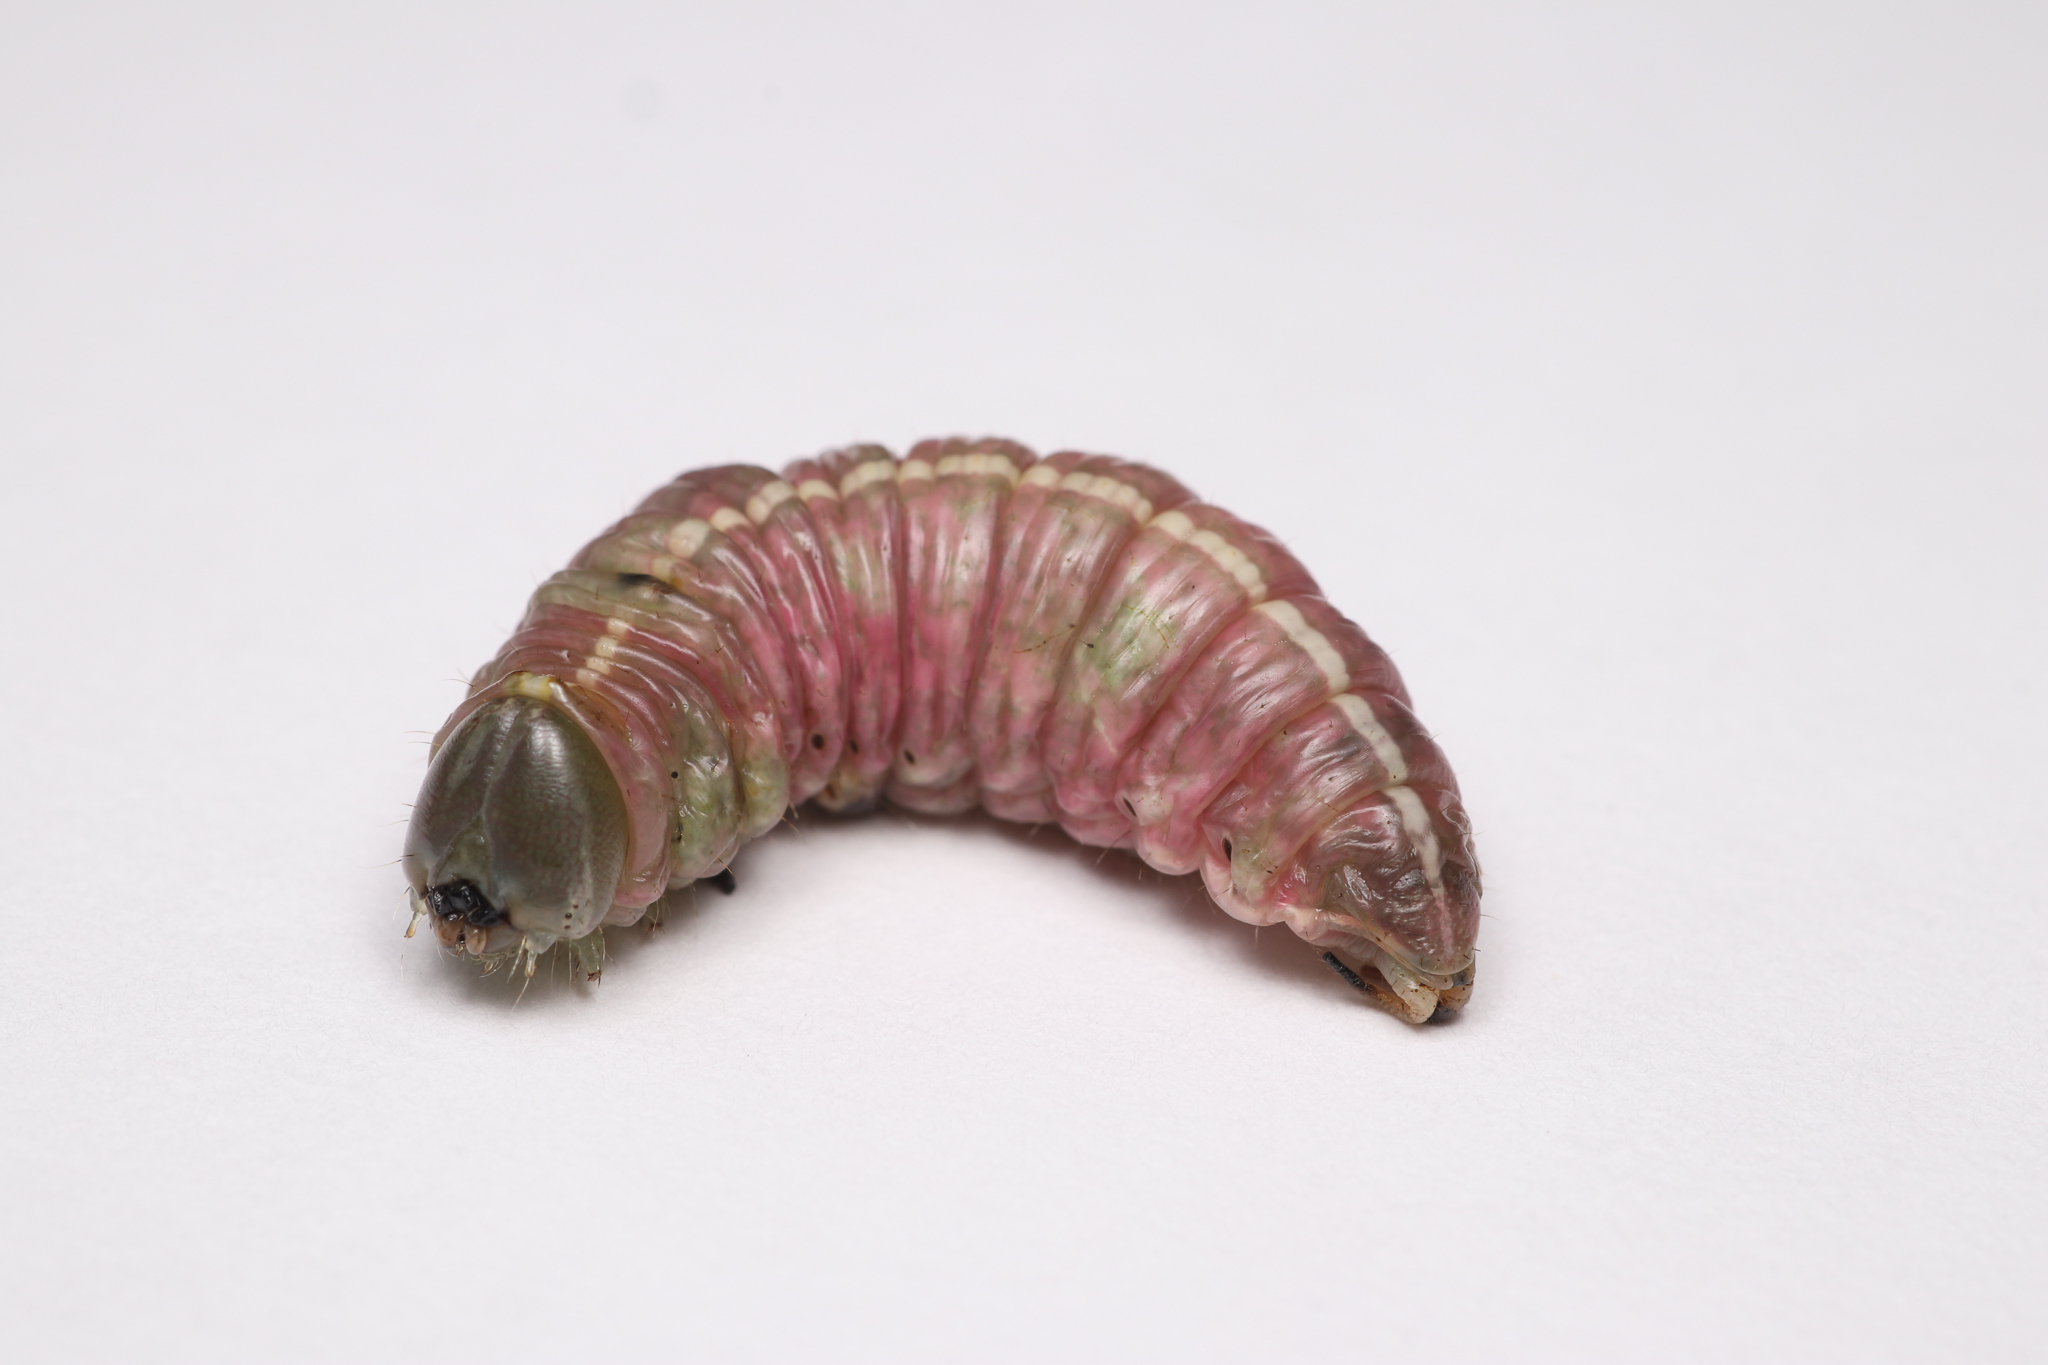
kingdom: Animalia
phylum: Arthropoda
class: Insecta
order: Lepidoptera
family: Notodontidae
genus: Macrurocampa
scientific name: Macrurocampa marthesia
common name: Mottled prominent
